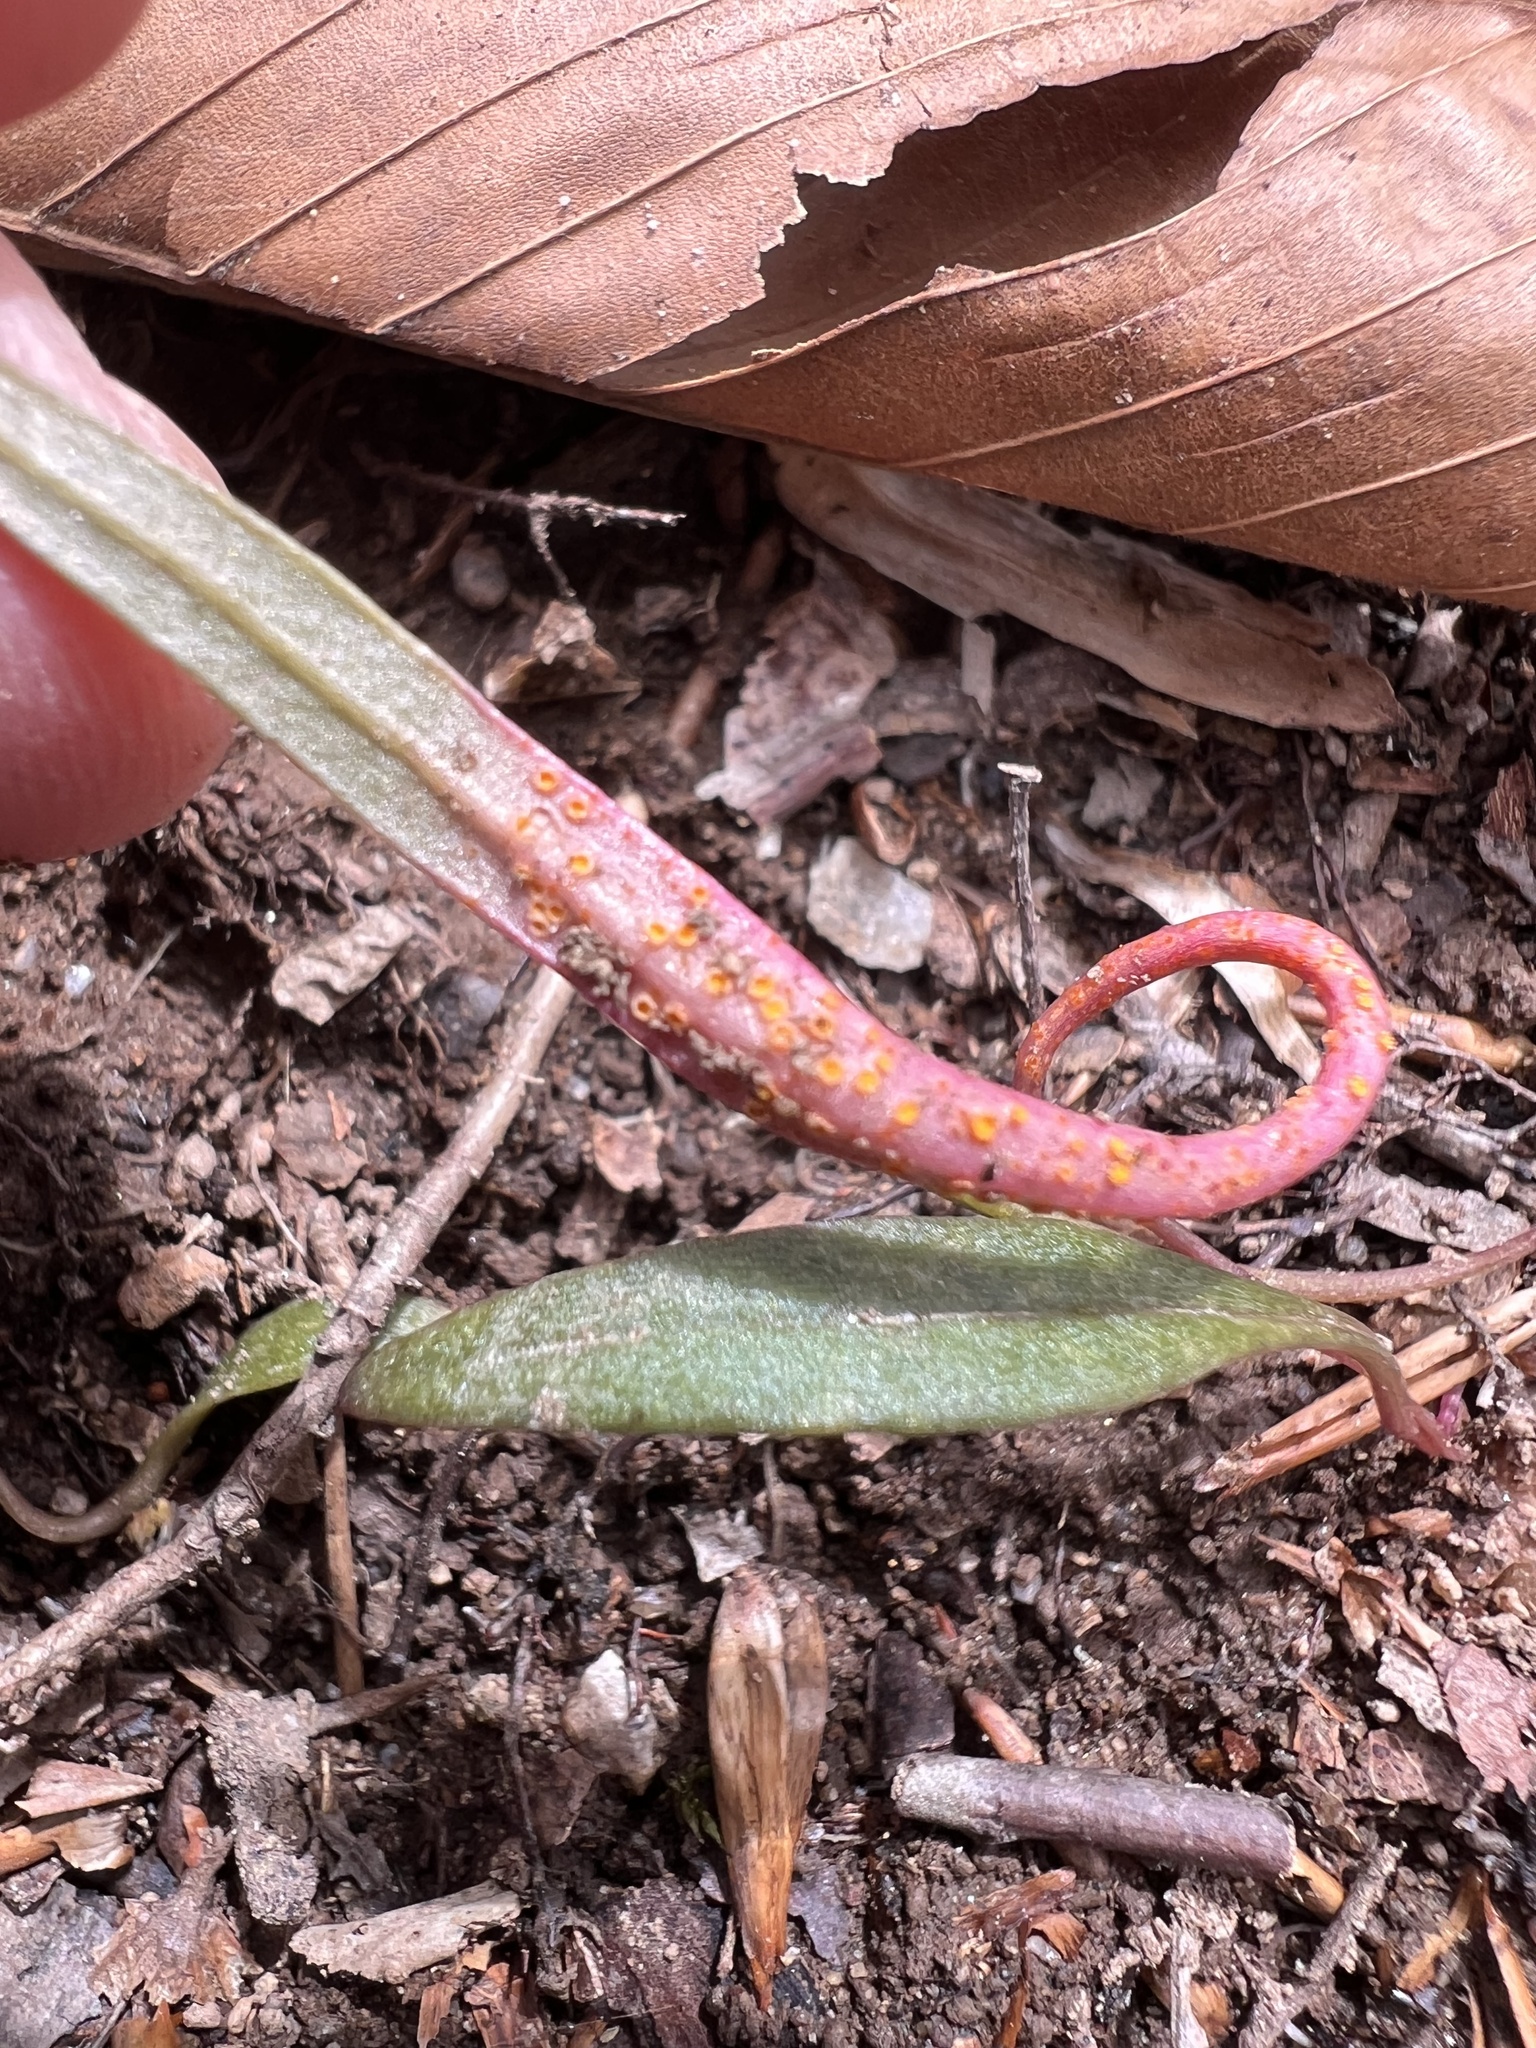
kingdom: Fungi
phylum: Basidiomycota
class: Pucciniomycetes
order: Pucciniales
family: Pucciniaceae
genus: Puccinia
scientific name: Puccinia mariae-wilsoniae
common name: Spring beauty rust
